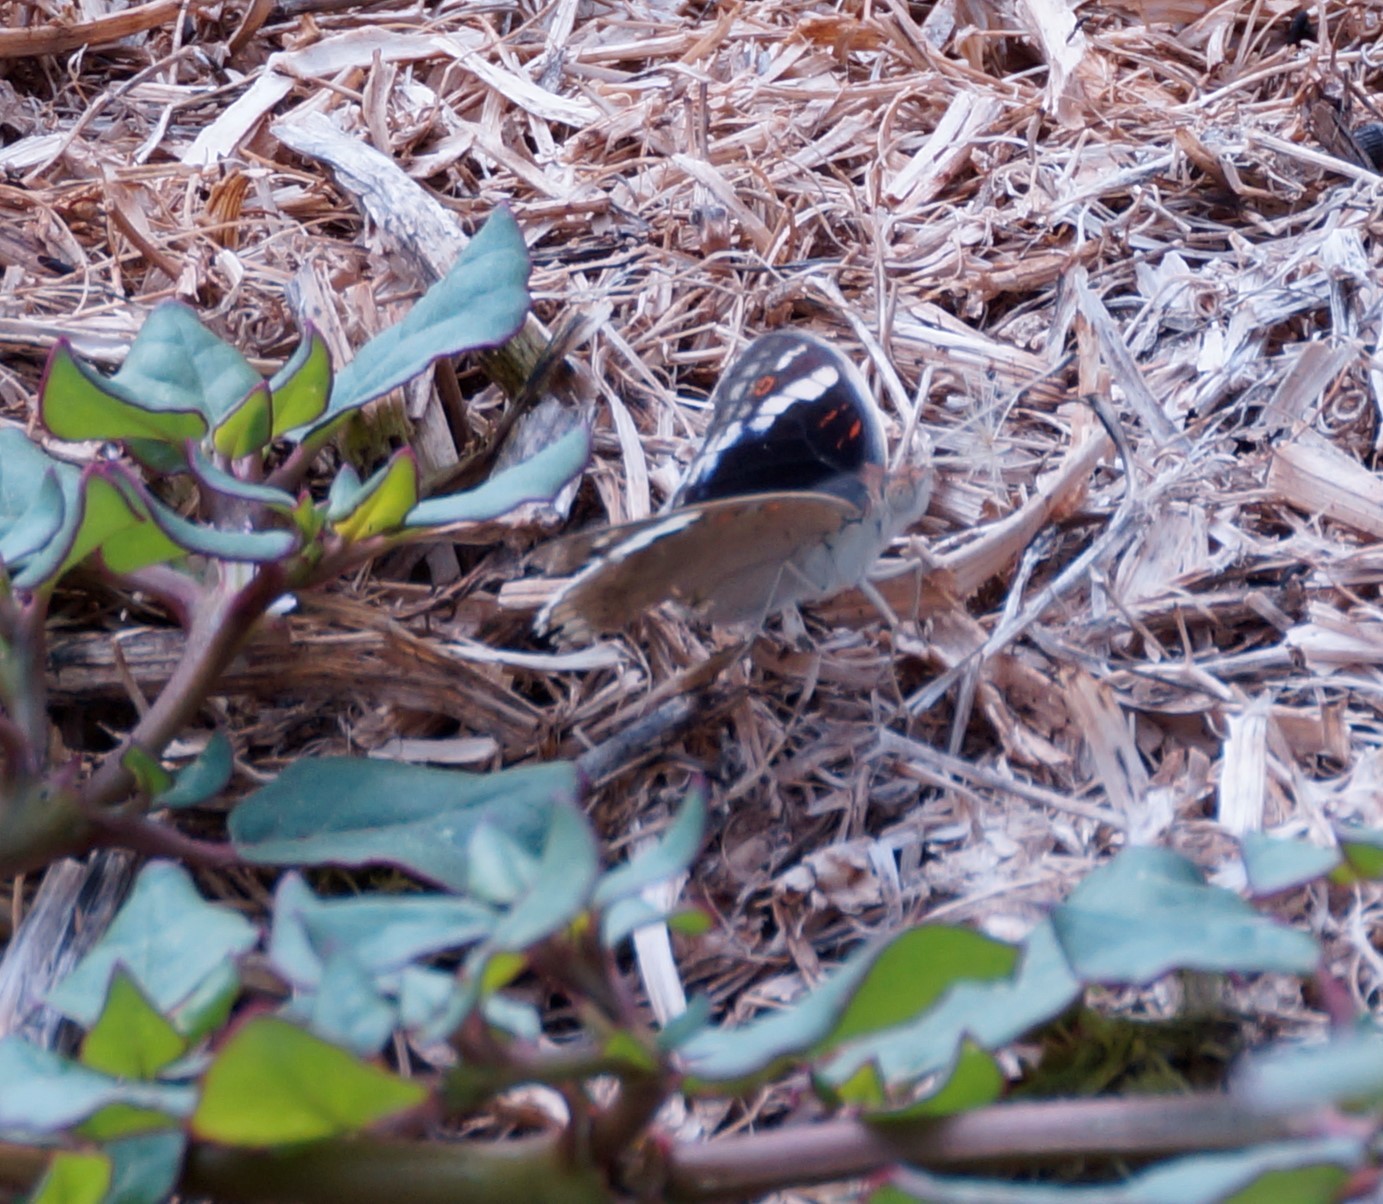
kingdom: Animalia
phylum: Arthropoda
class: Insecta
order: Lepidoptera
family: Nymphalidae
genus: Junonia
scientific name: Junonia orithya
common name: Blue pansy
